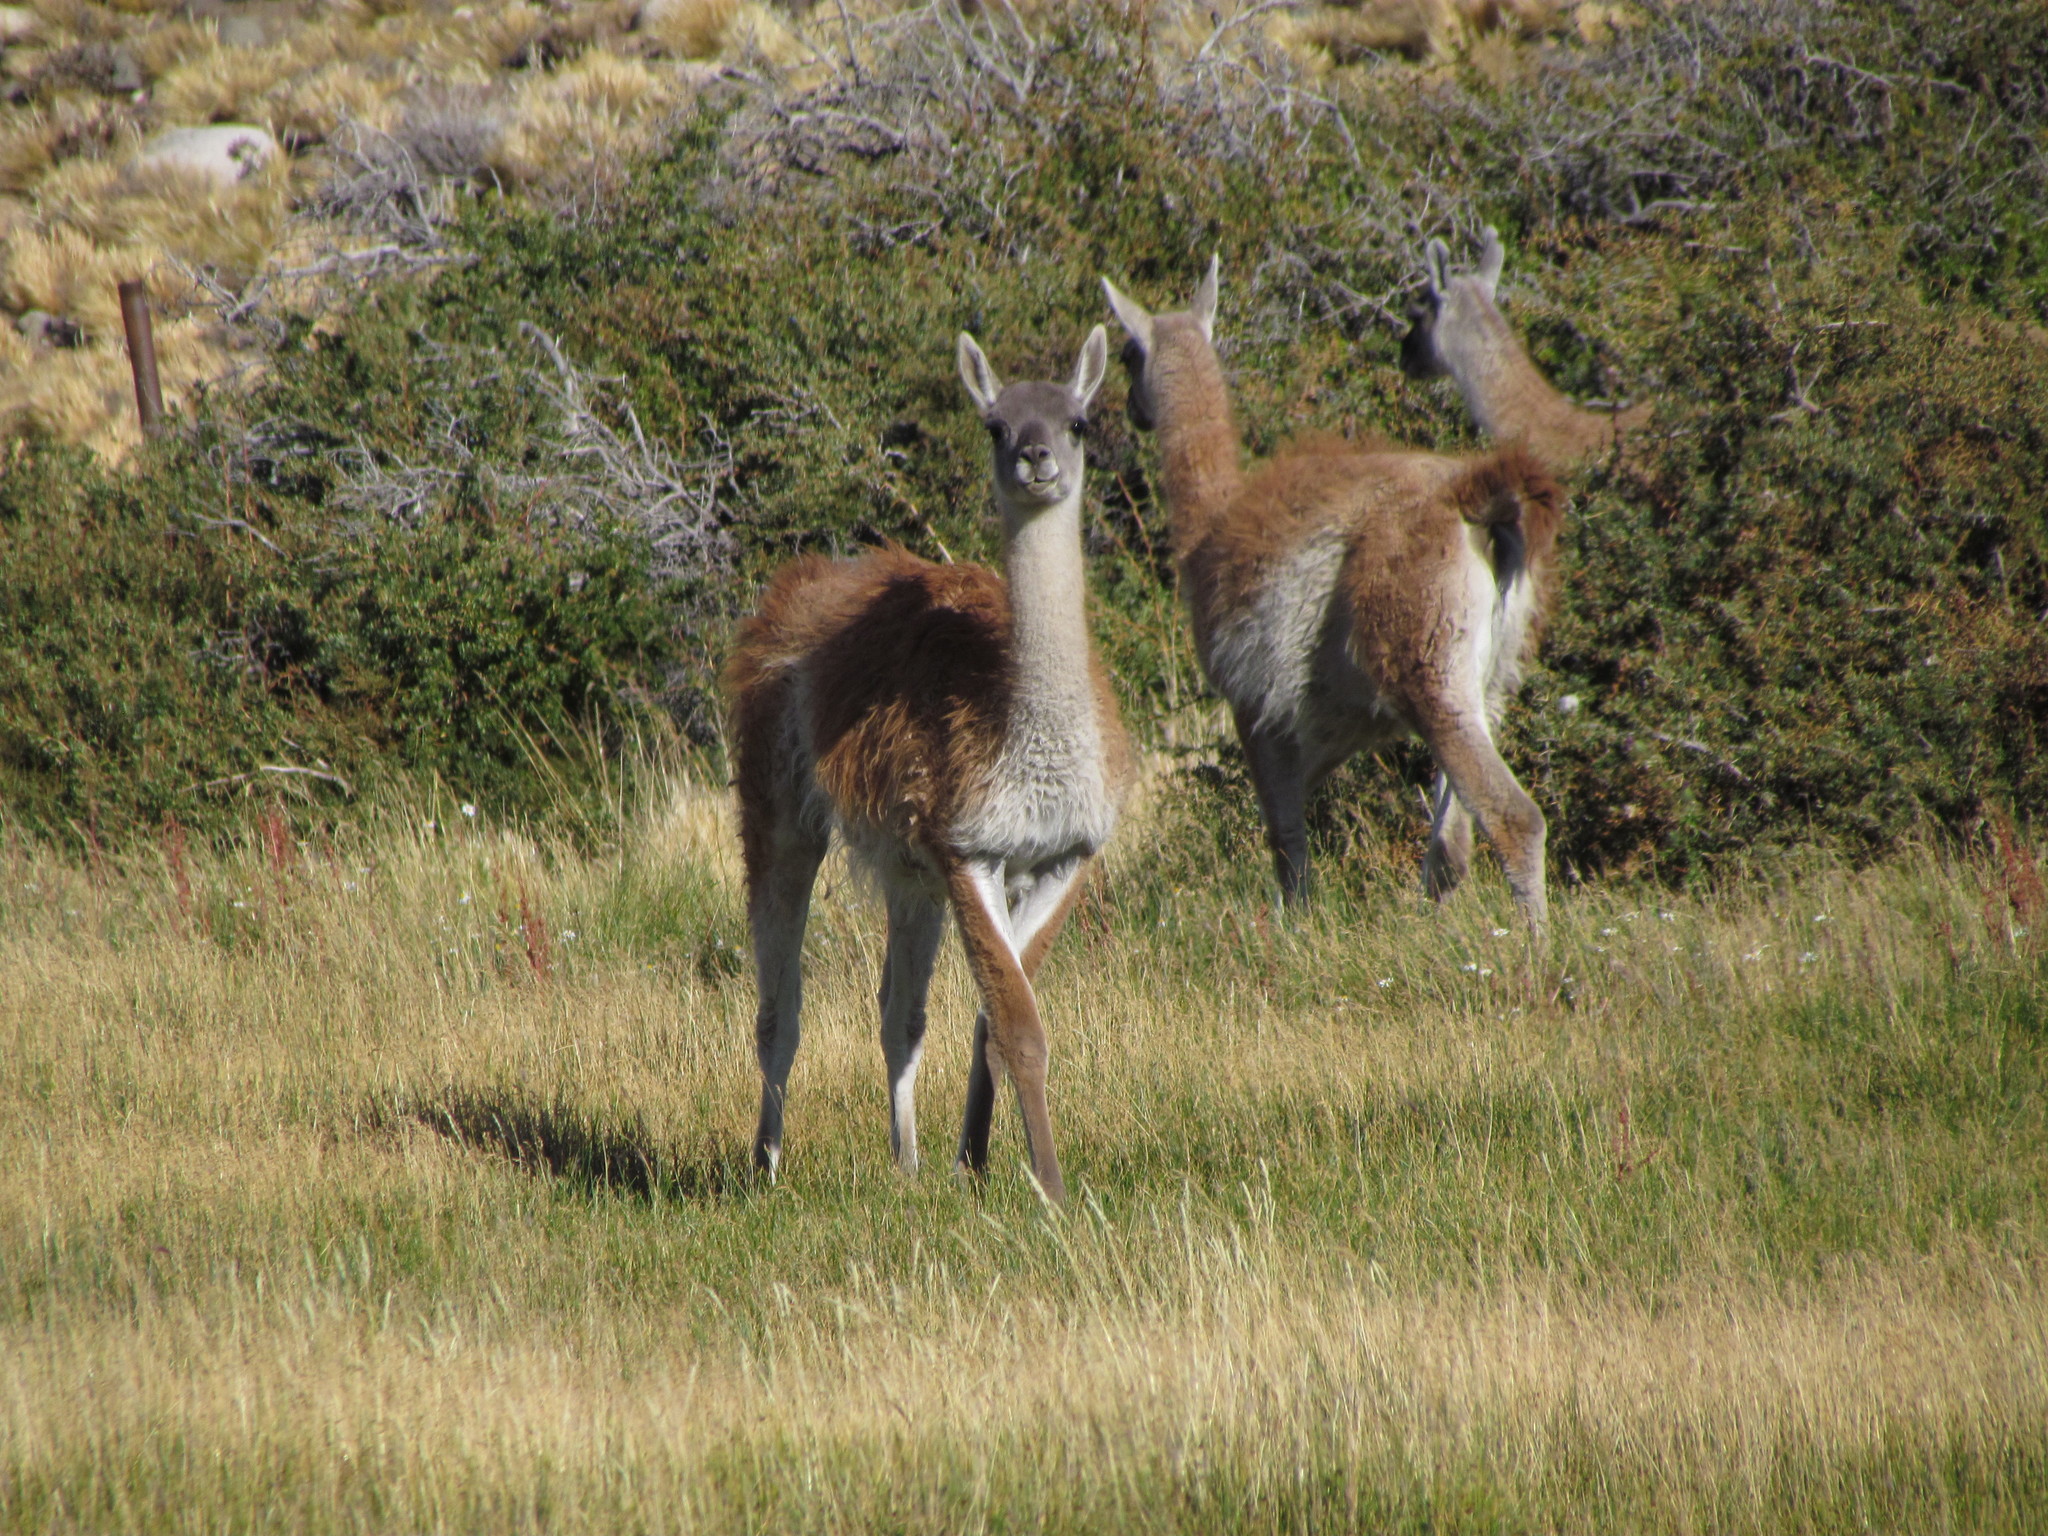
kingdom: Animalia
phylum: Chordata
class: Mammalia
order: Artiodactyla
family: Camelidae
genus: Lama
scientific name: Lama glama
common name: Llama
